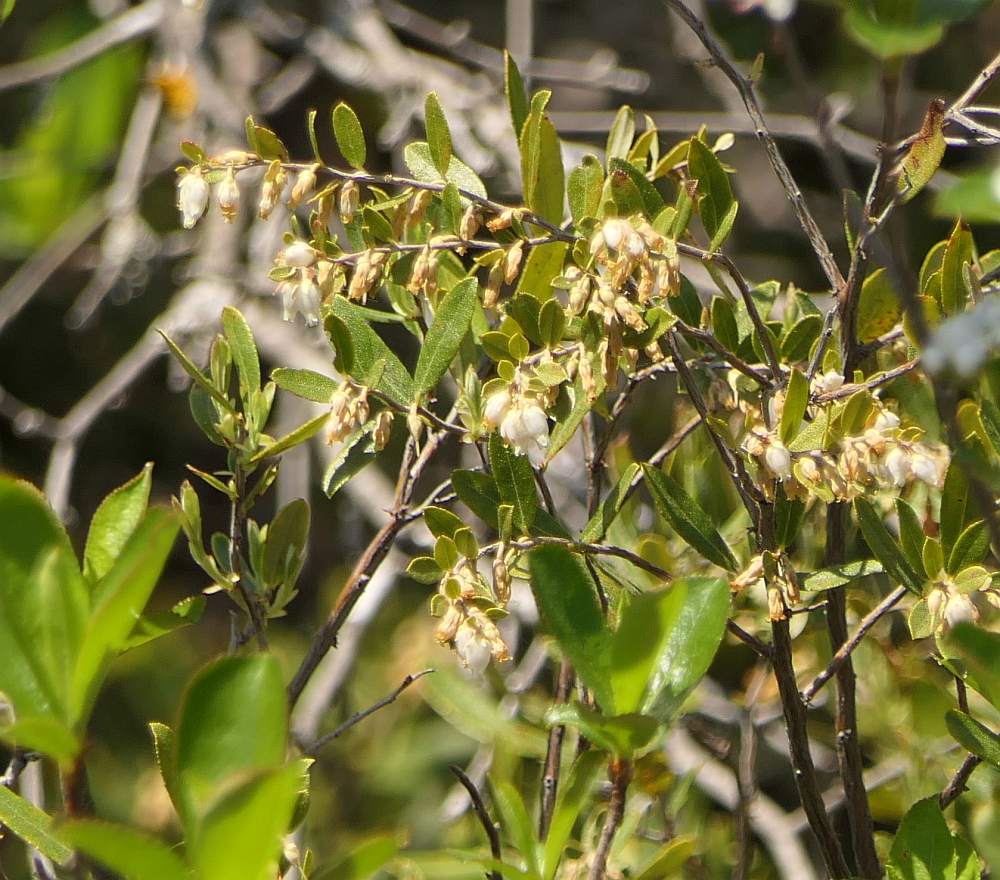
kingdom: Plantae
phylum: Tracheophyta
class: Magnoliopsida
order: Ericales
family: Ericaceae
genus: Chamaedaphne
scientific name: Chamaedaphne calyculata
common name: Leatherleaf
